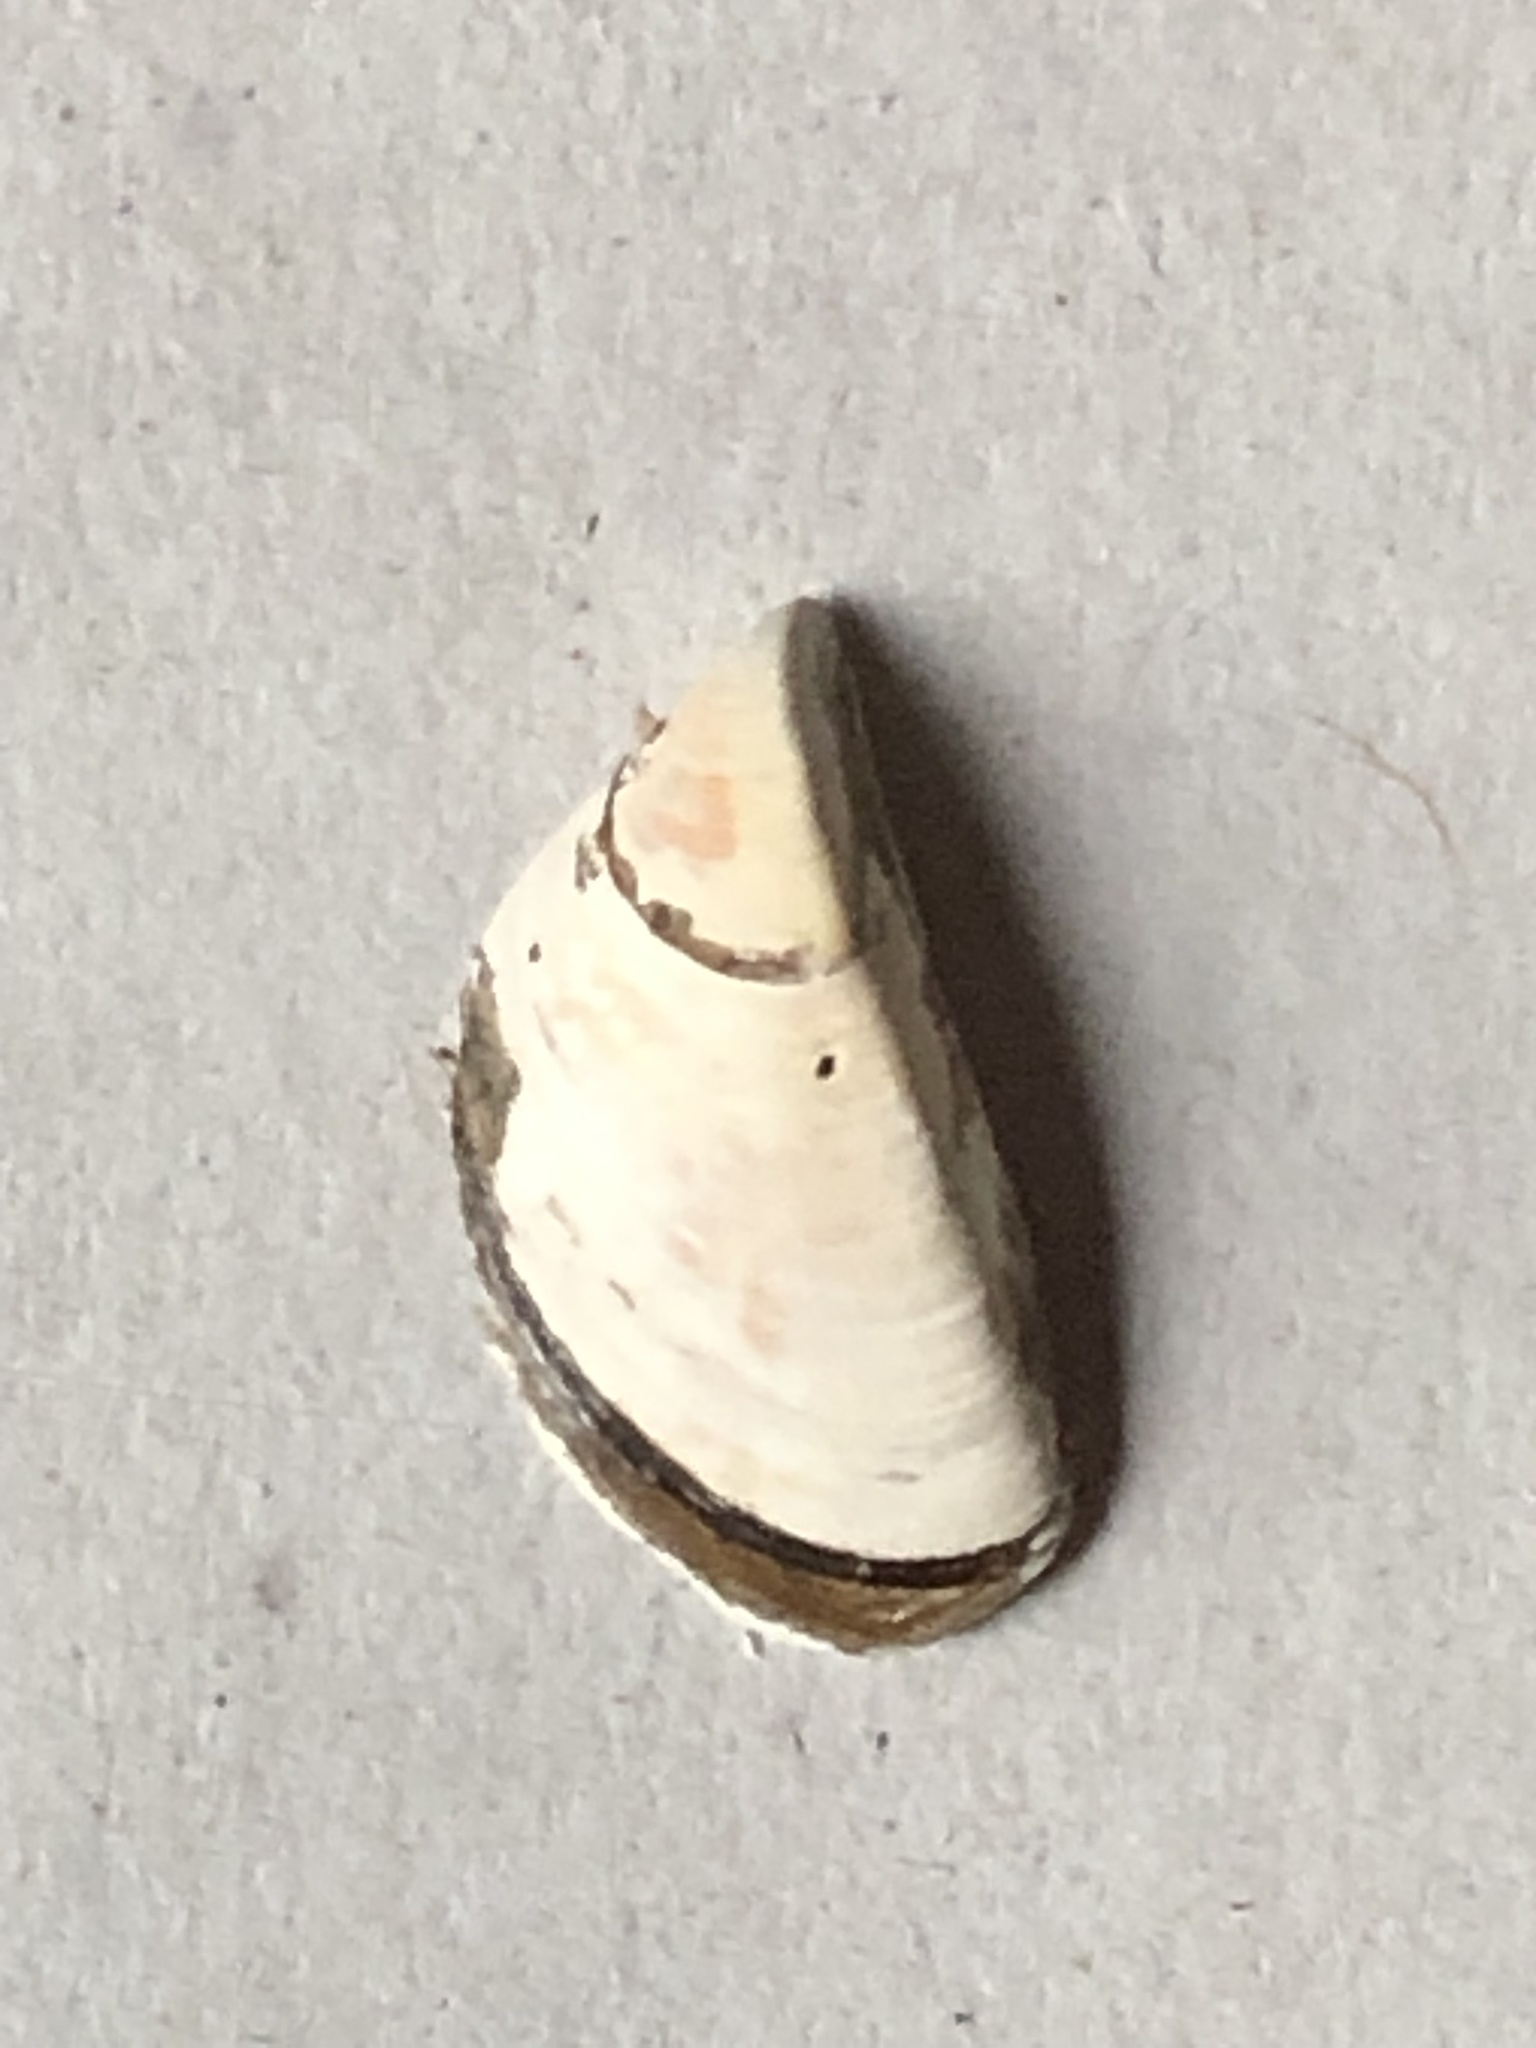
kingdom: Animalia
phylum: Mollusca
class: Bivalvia
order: Myida
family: Dreissenidae
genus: Dreissena
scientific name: Dreissena polymorpha
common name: Zebra mussel
